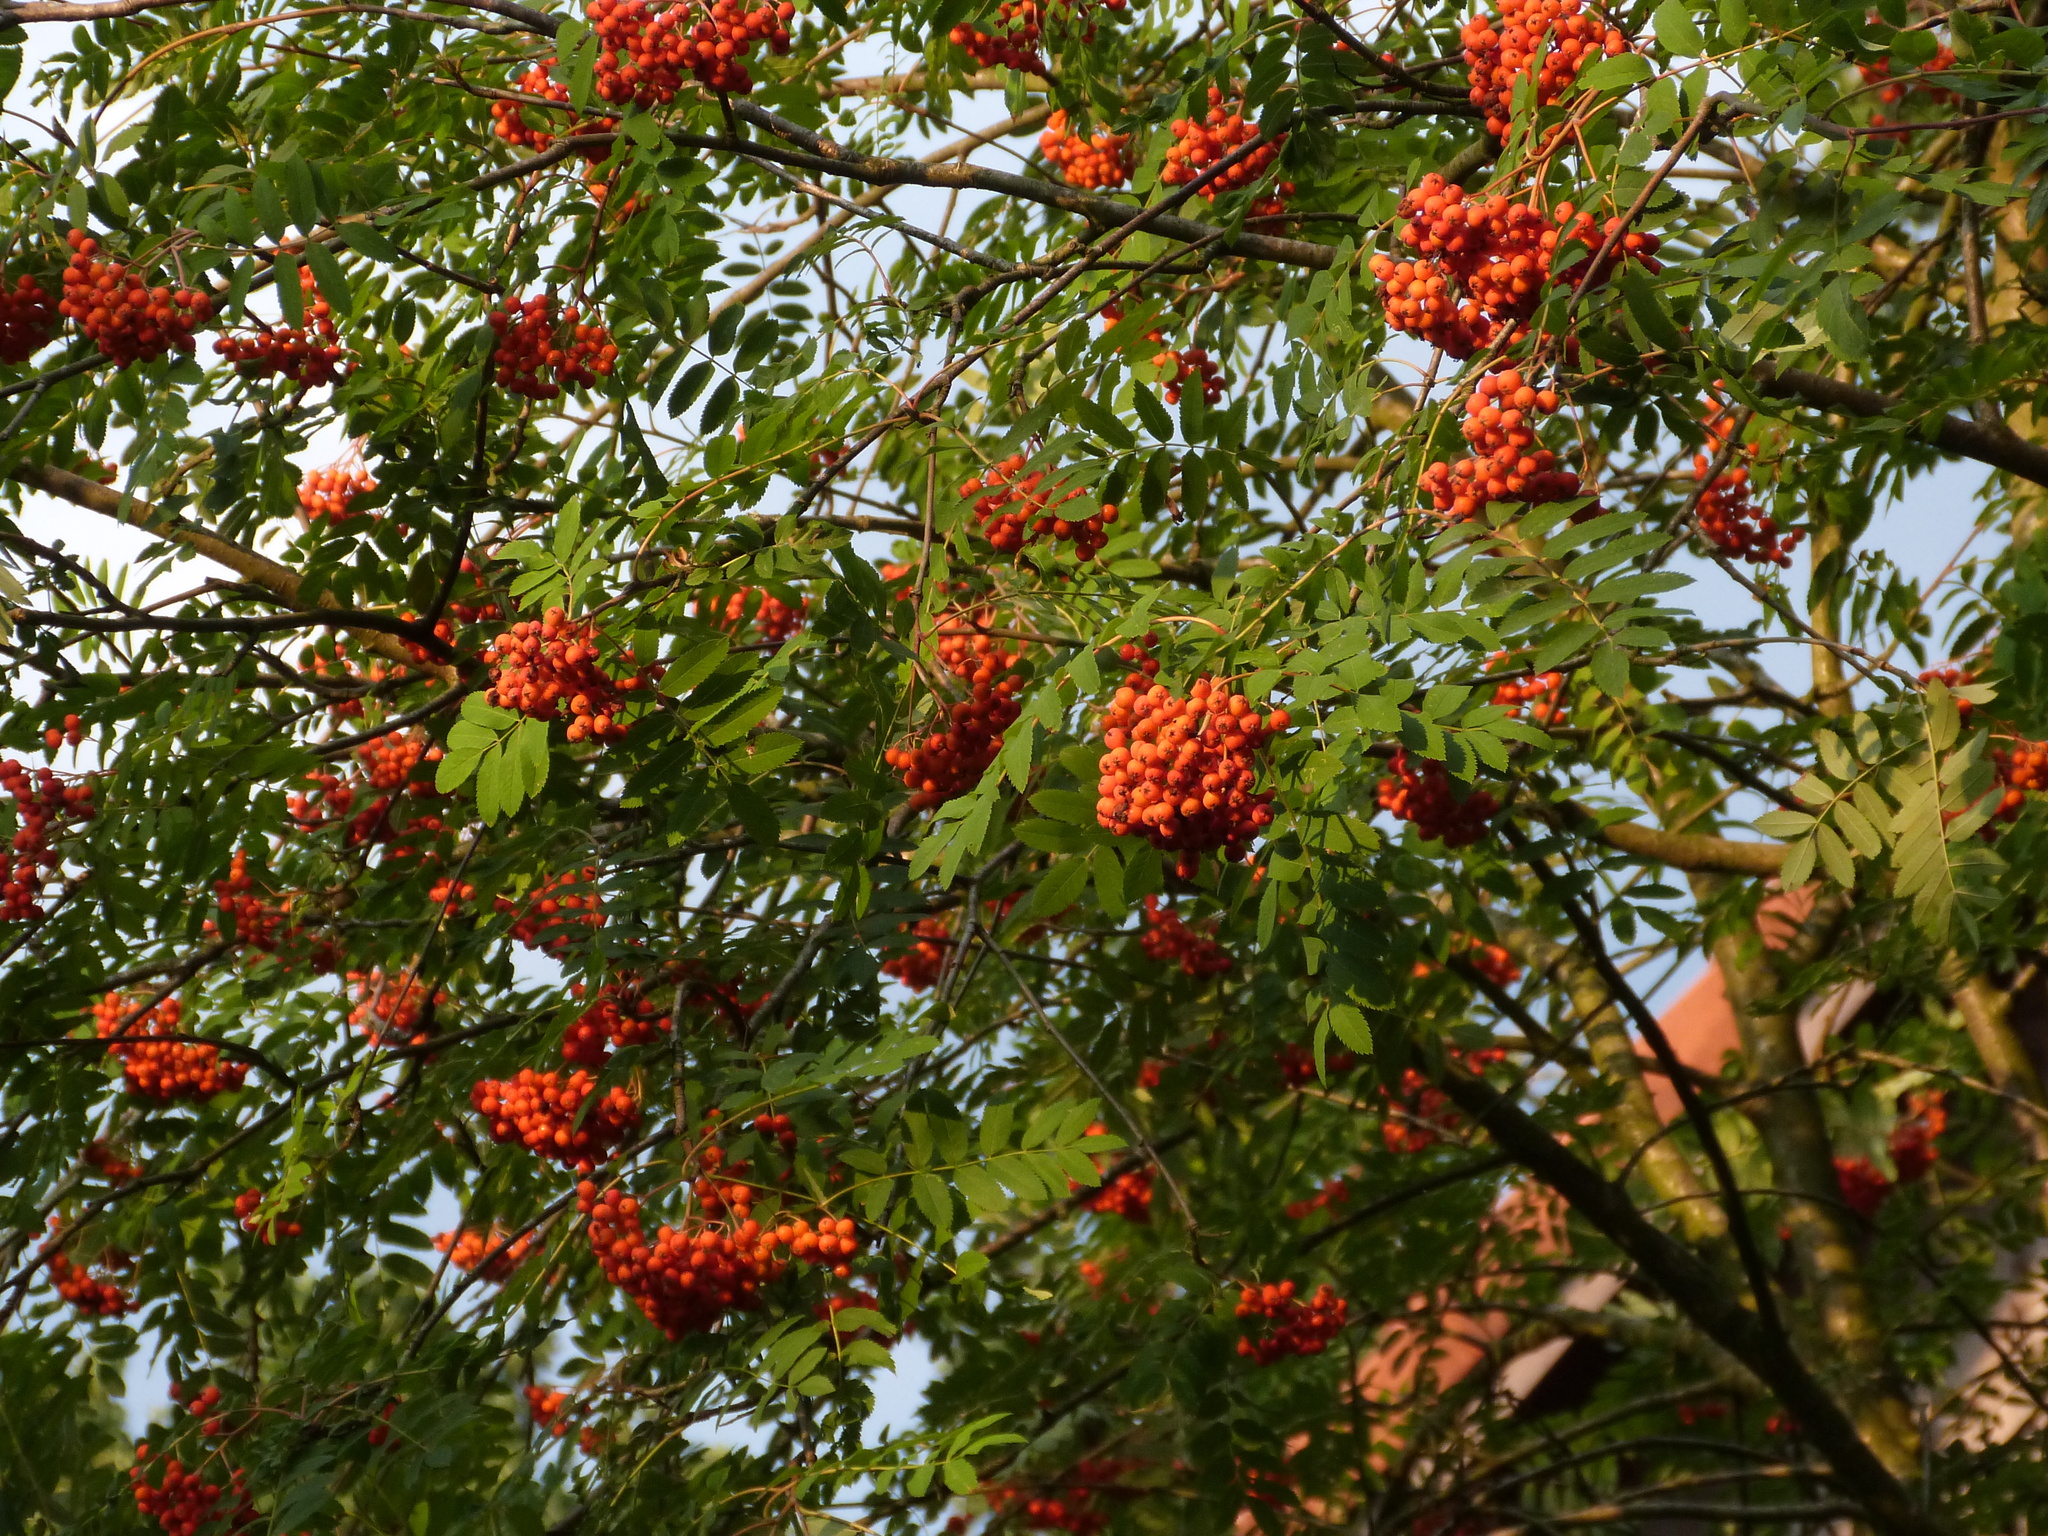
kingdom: Plantae
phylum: Tracheophyta
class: Magnoliopsida
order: Rosales
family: Rosaceae
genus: Sorbus
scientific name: Sorbus aucuparia
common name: Rowan
